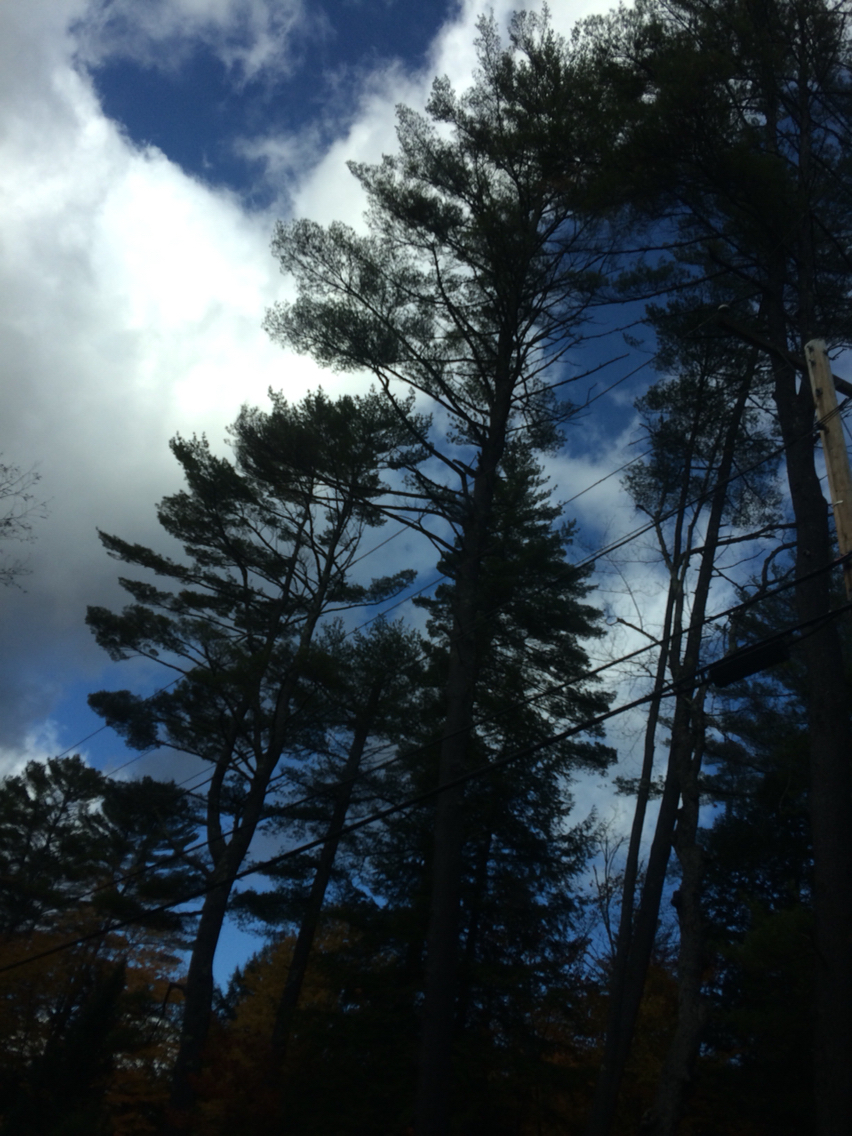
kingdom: Plantae
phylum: Tracheophyta
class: Pinopsida
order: Pinales
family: Pinaceae
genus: Pinus
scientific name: Pinus strobus
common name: Weymouth pine
